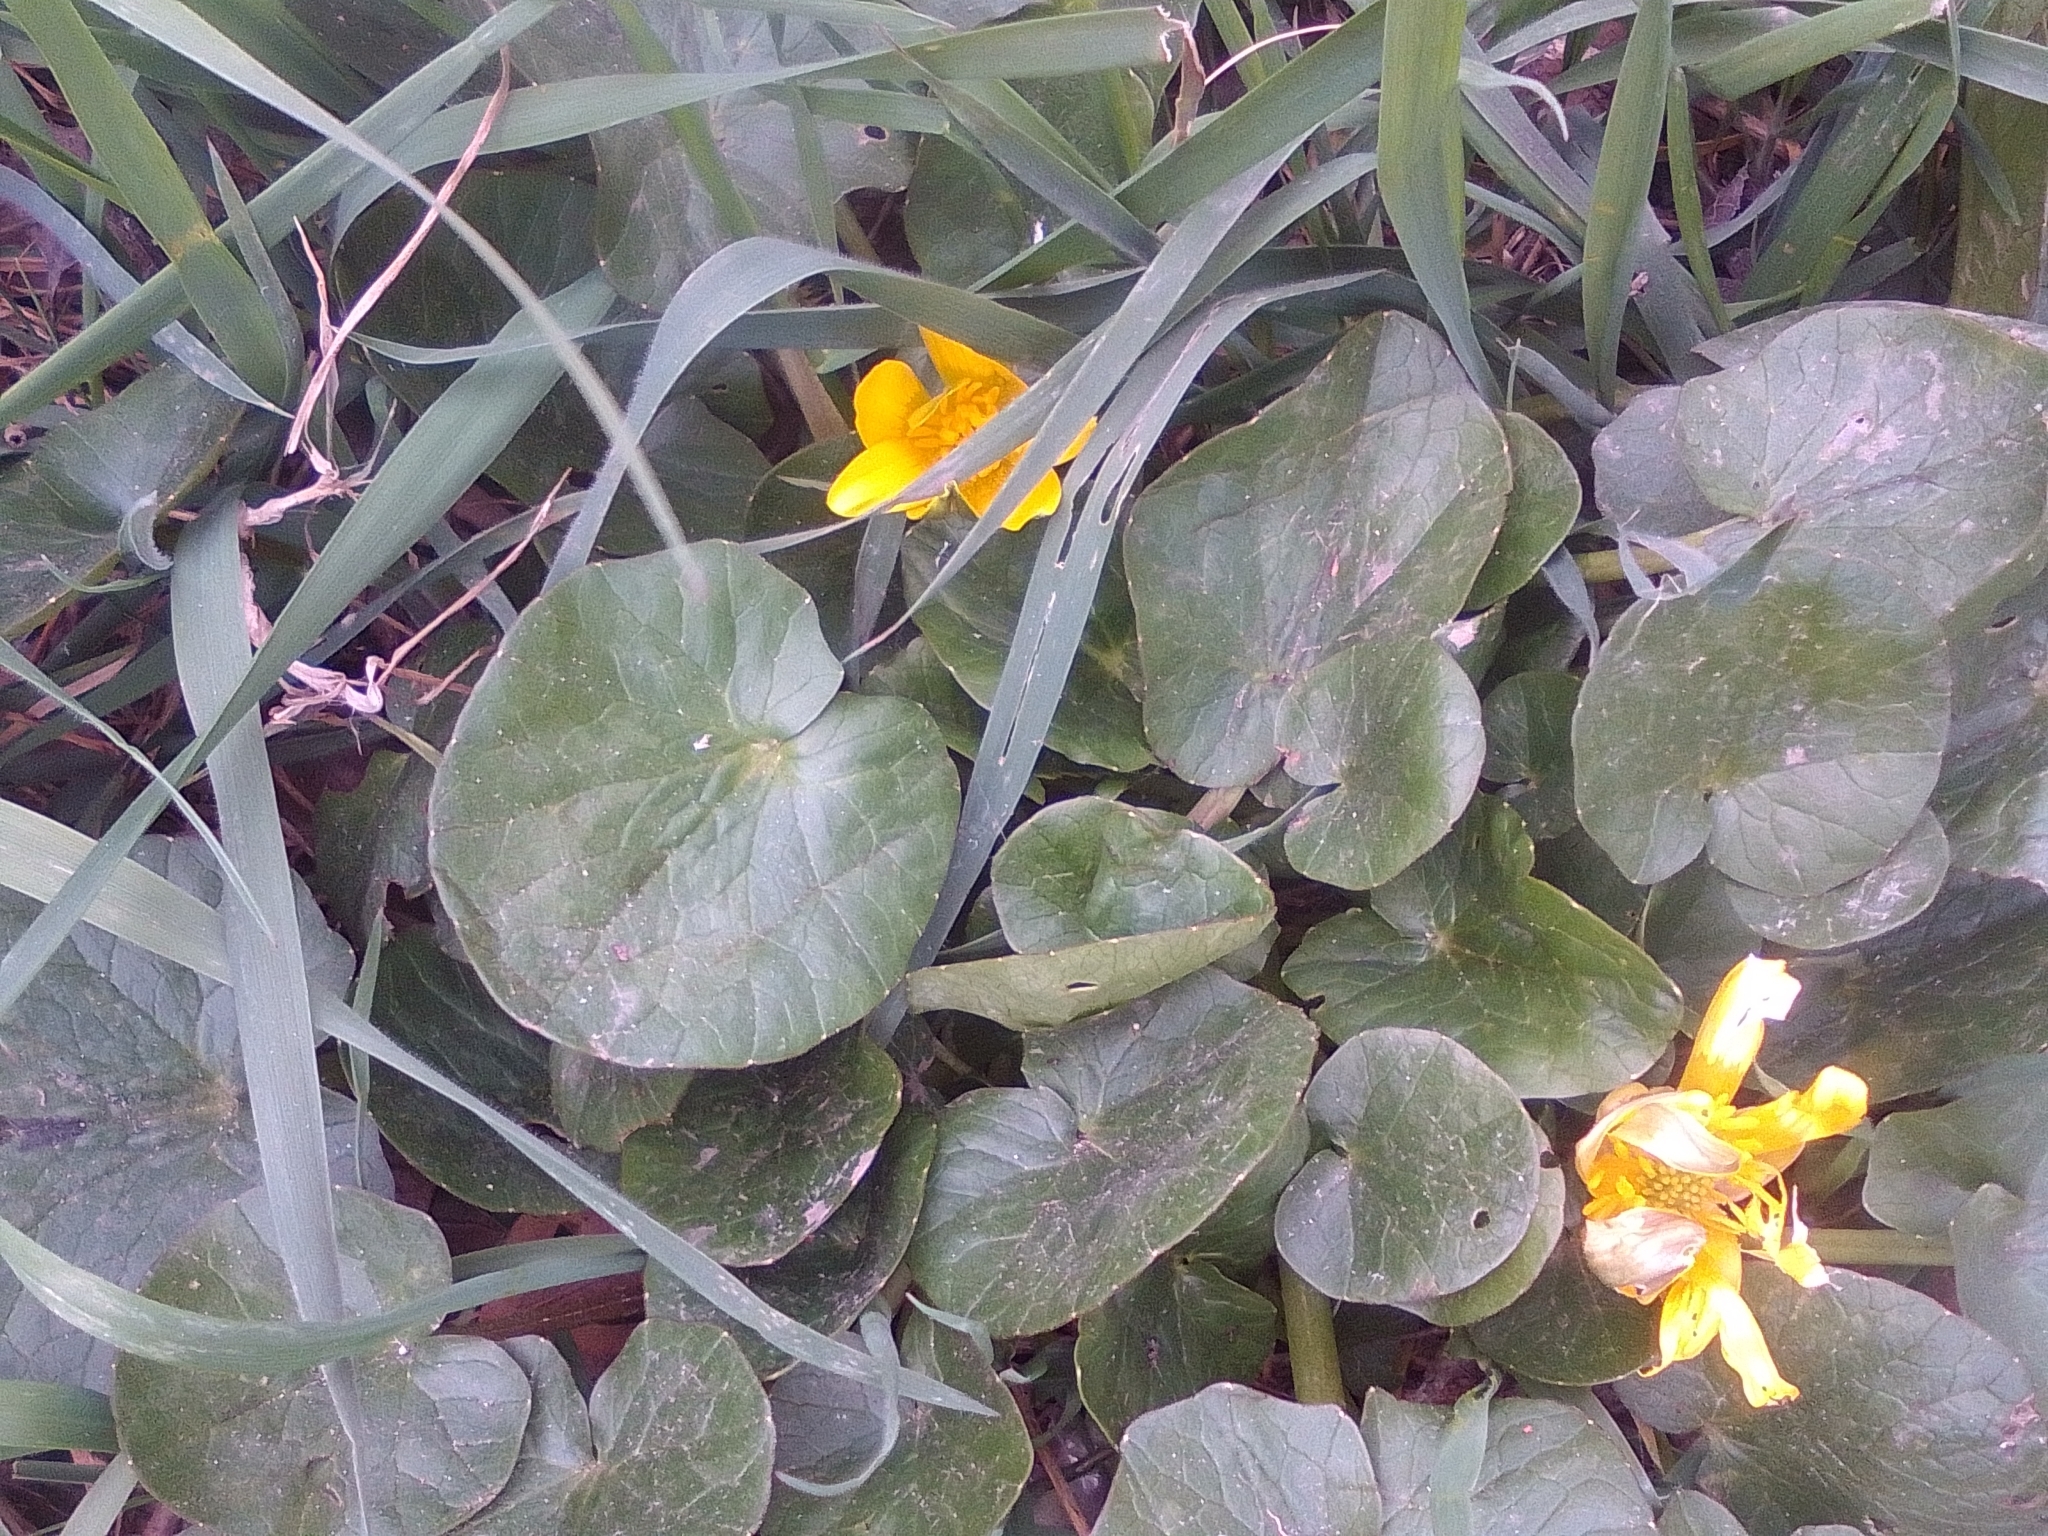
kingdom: Plantae
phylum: Tracheophyta
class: Magnoliopsida
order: Ranunculales
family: Ranunculaceae
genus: Ficaria
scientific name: Ficaria verna
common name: Lesser celandine
